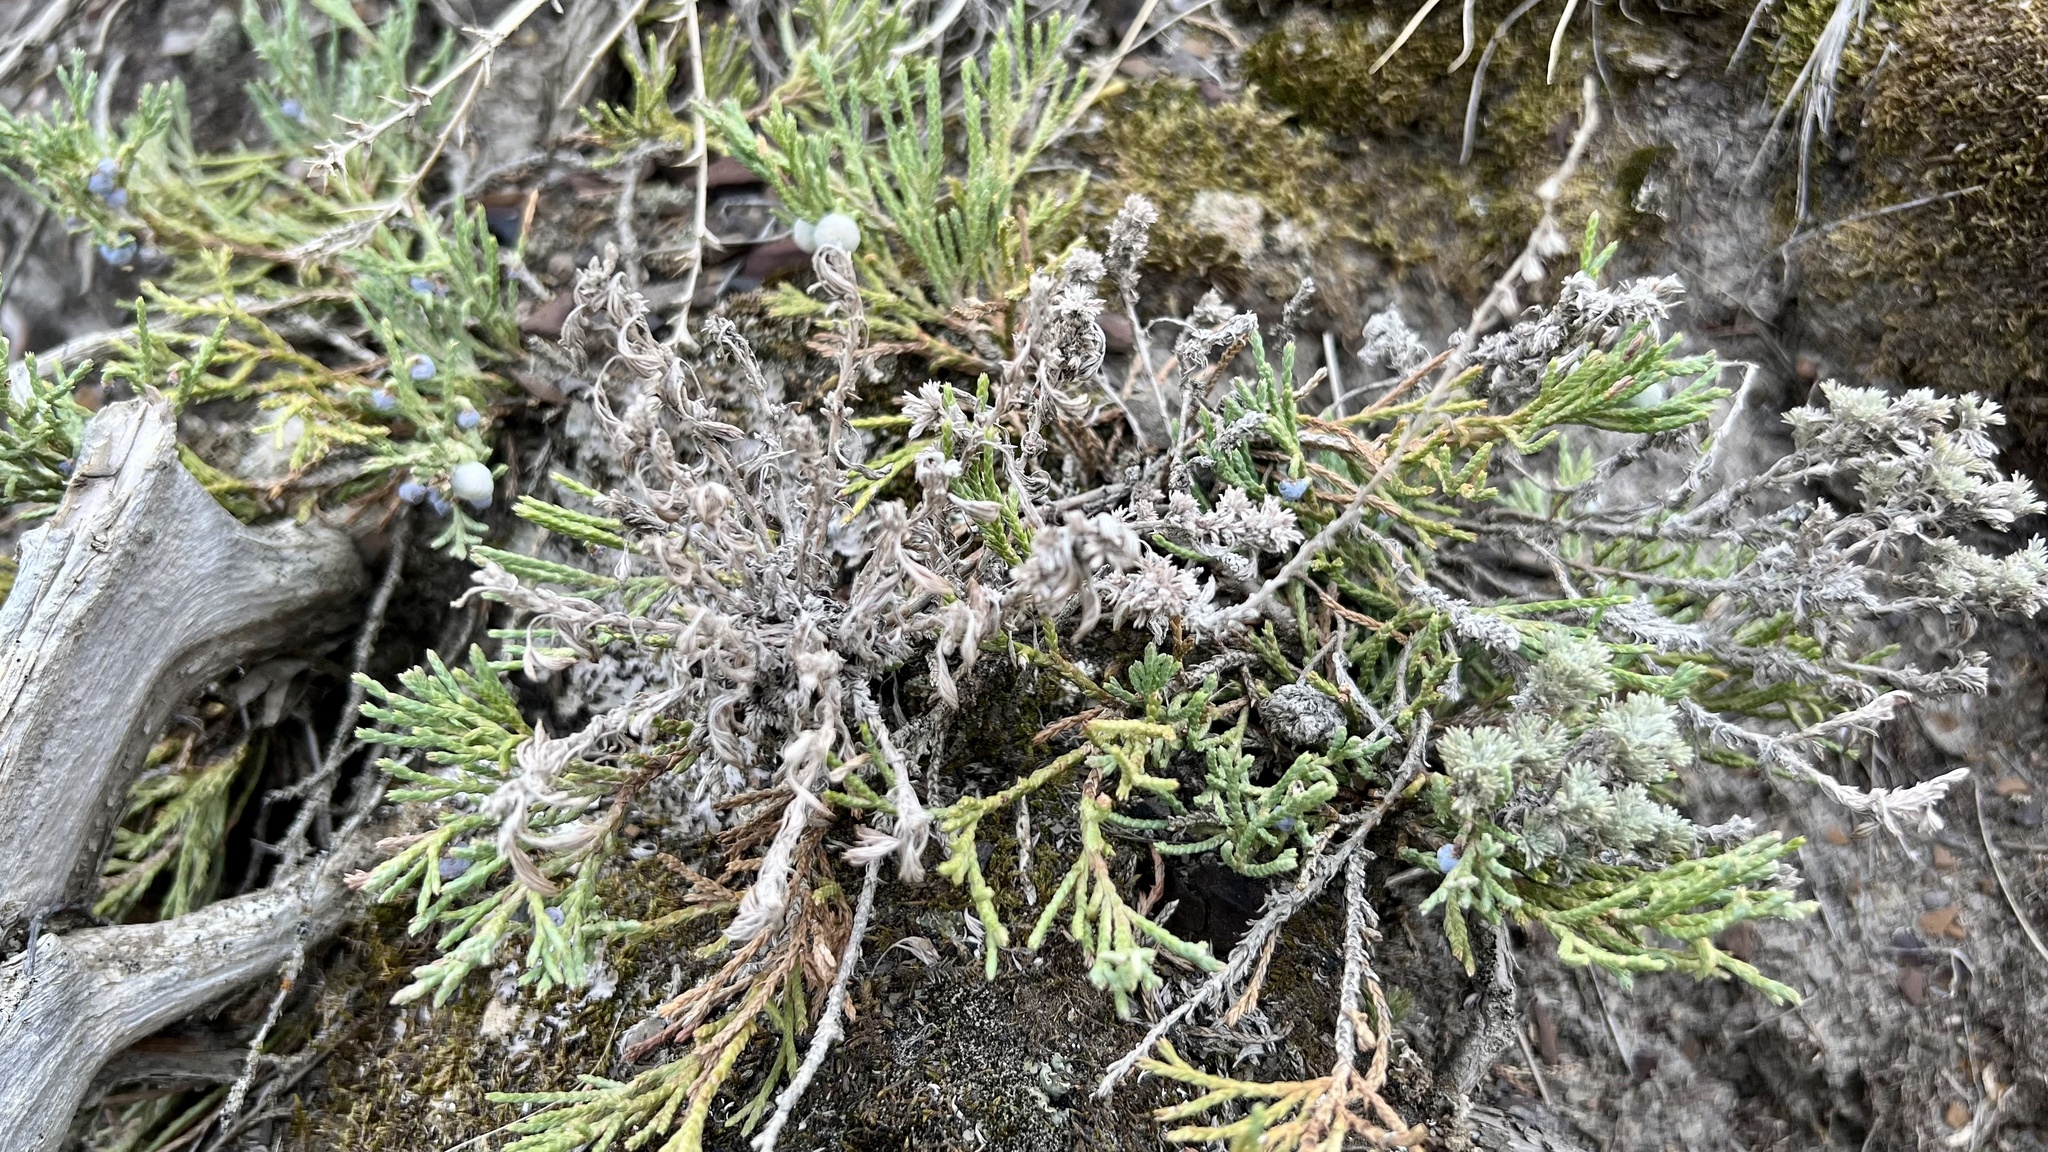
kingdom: Plantae
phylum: Tracheophyta
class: Pinopsida
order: Pinales
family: Cupressaceae
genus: Juniperus
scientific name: Juniperus horizontalis
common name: Creeping juniper
